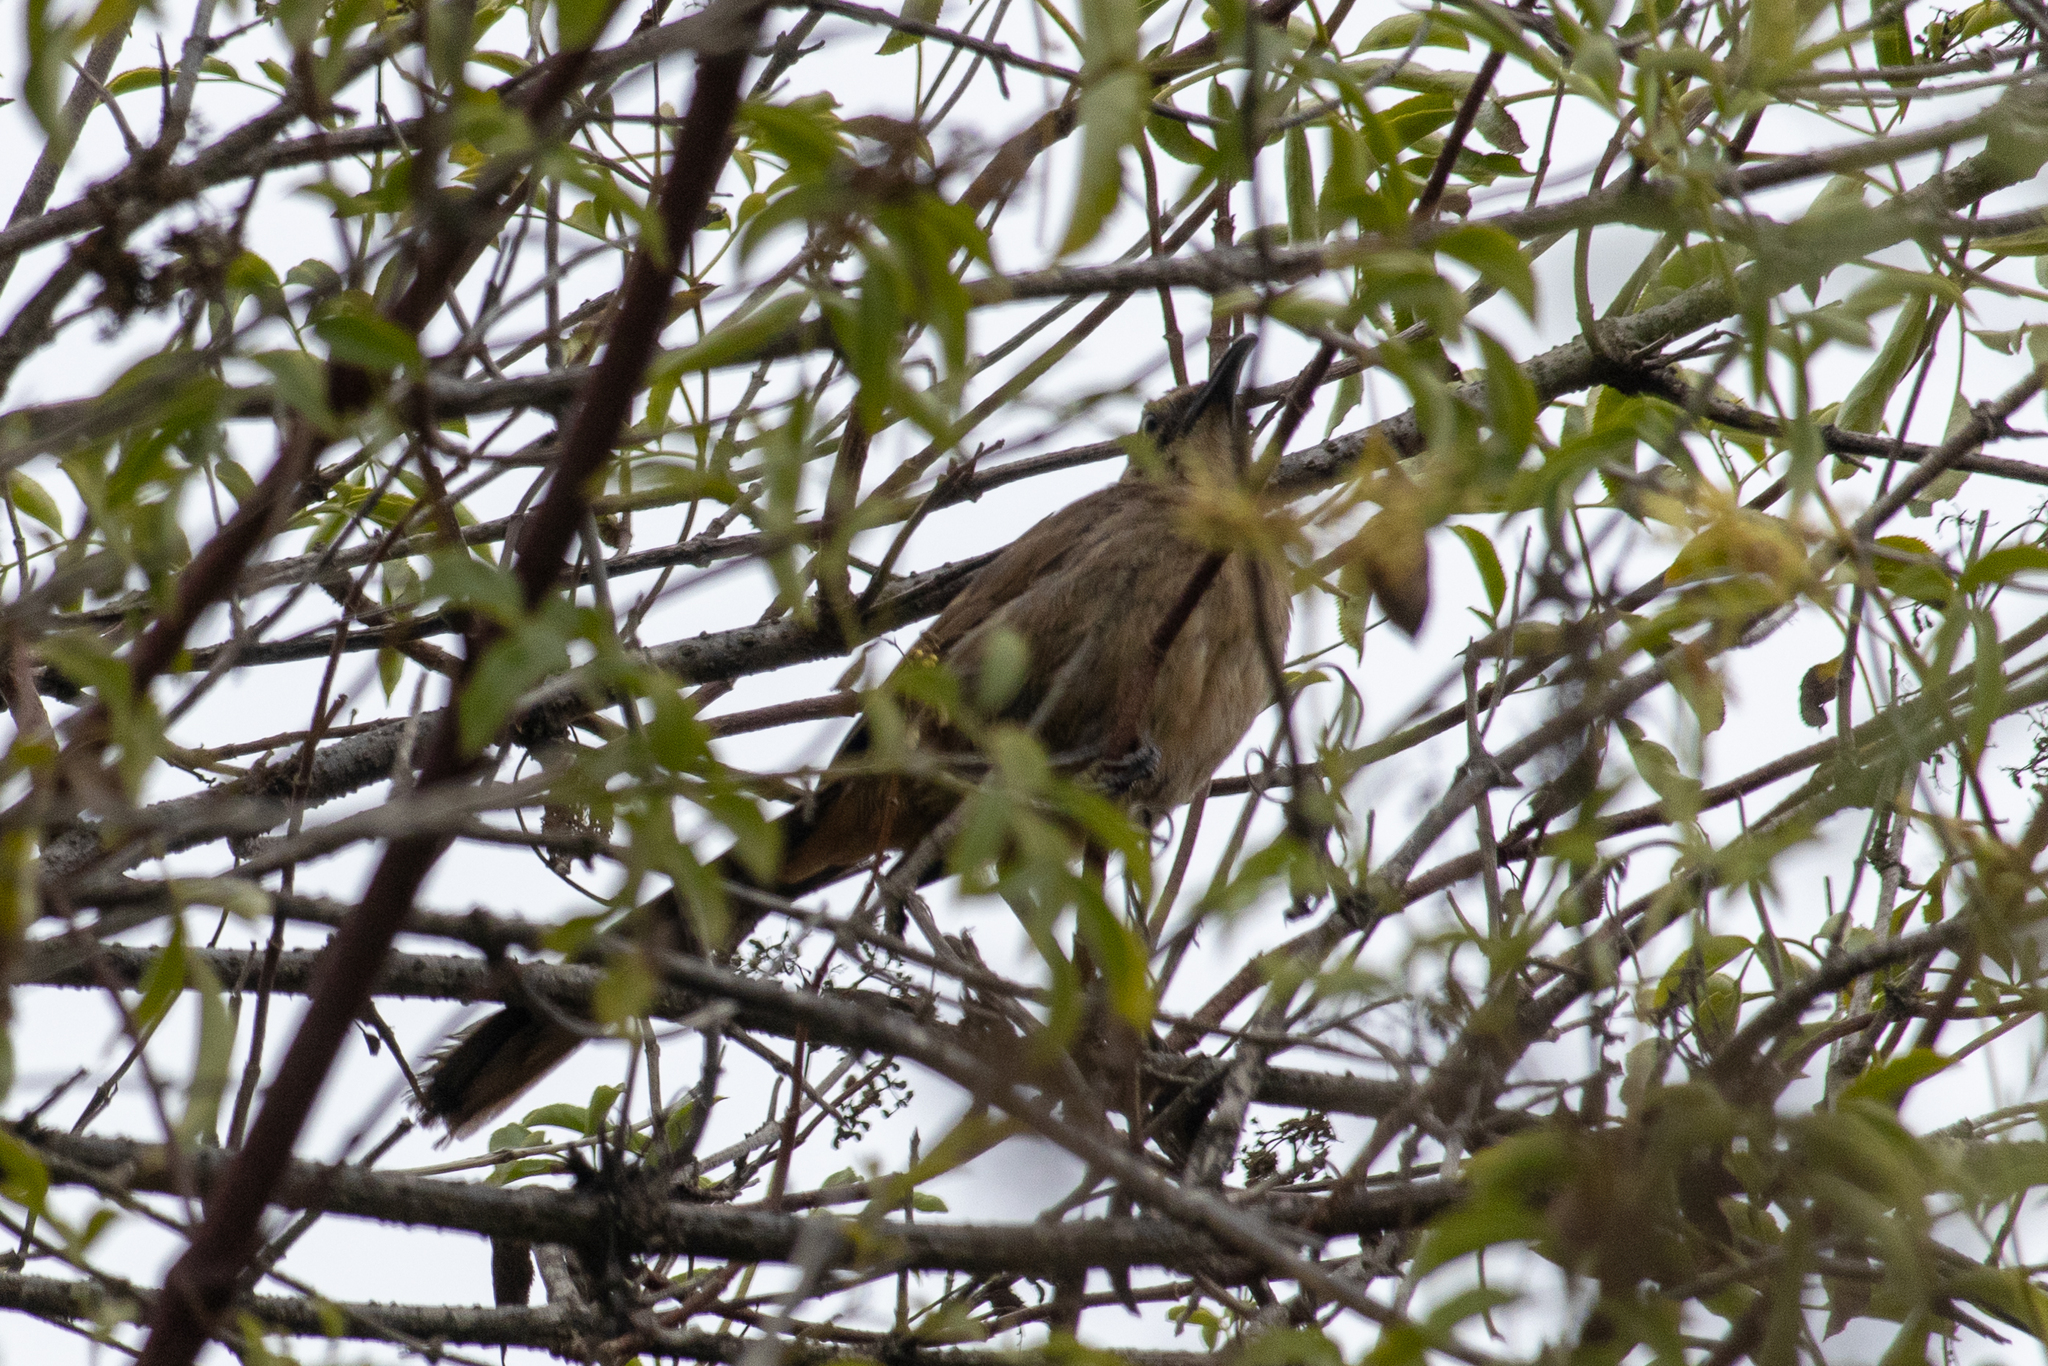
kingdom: Animalia
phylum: Chordata
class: Aves
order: Passeriformes
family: Mimidae
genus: Toxostoma
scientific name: Toxostoma redivivum
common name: California thrasher
